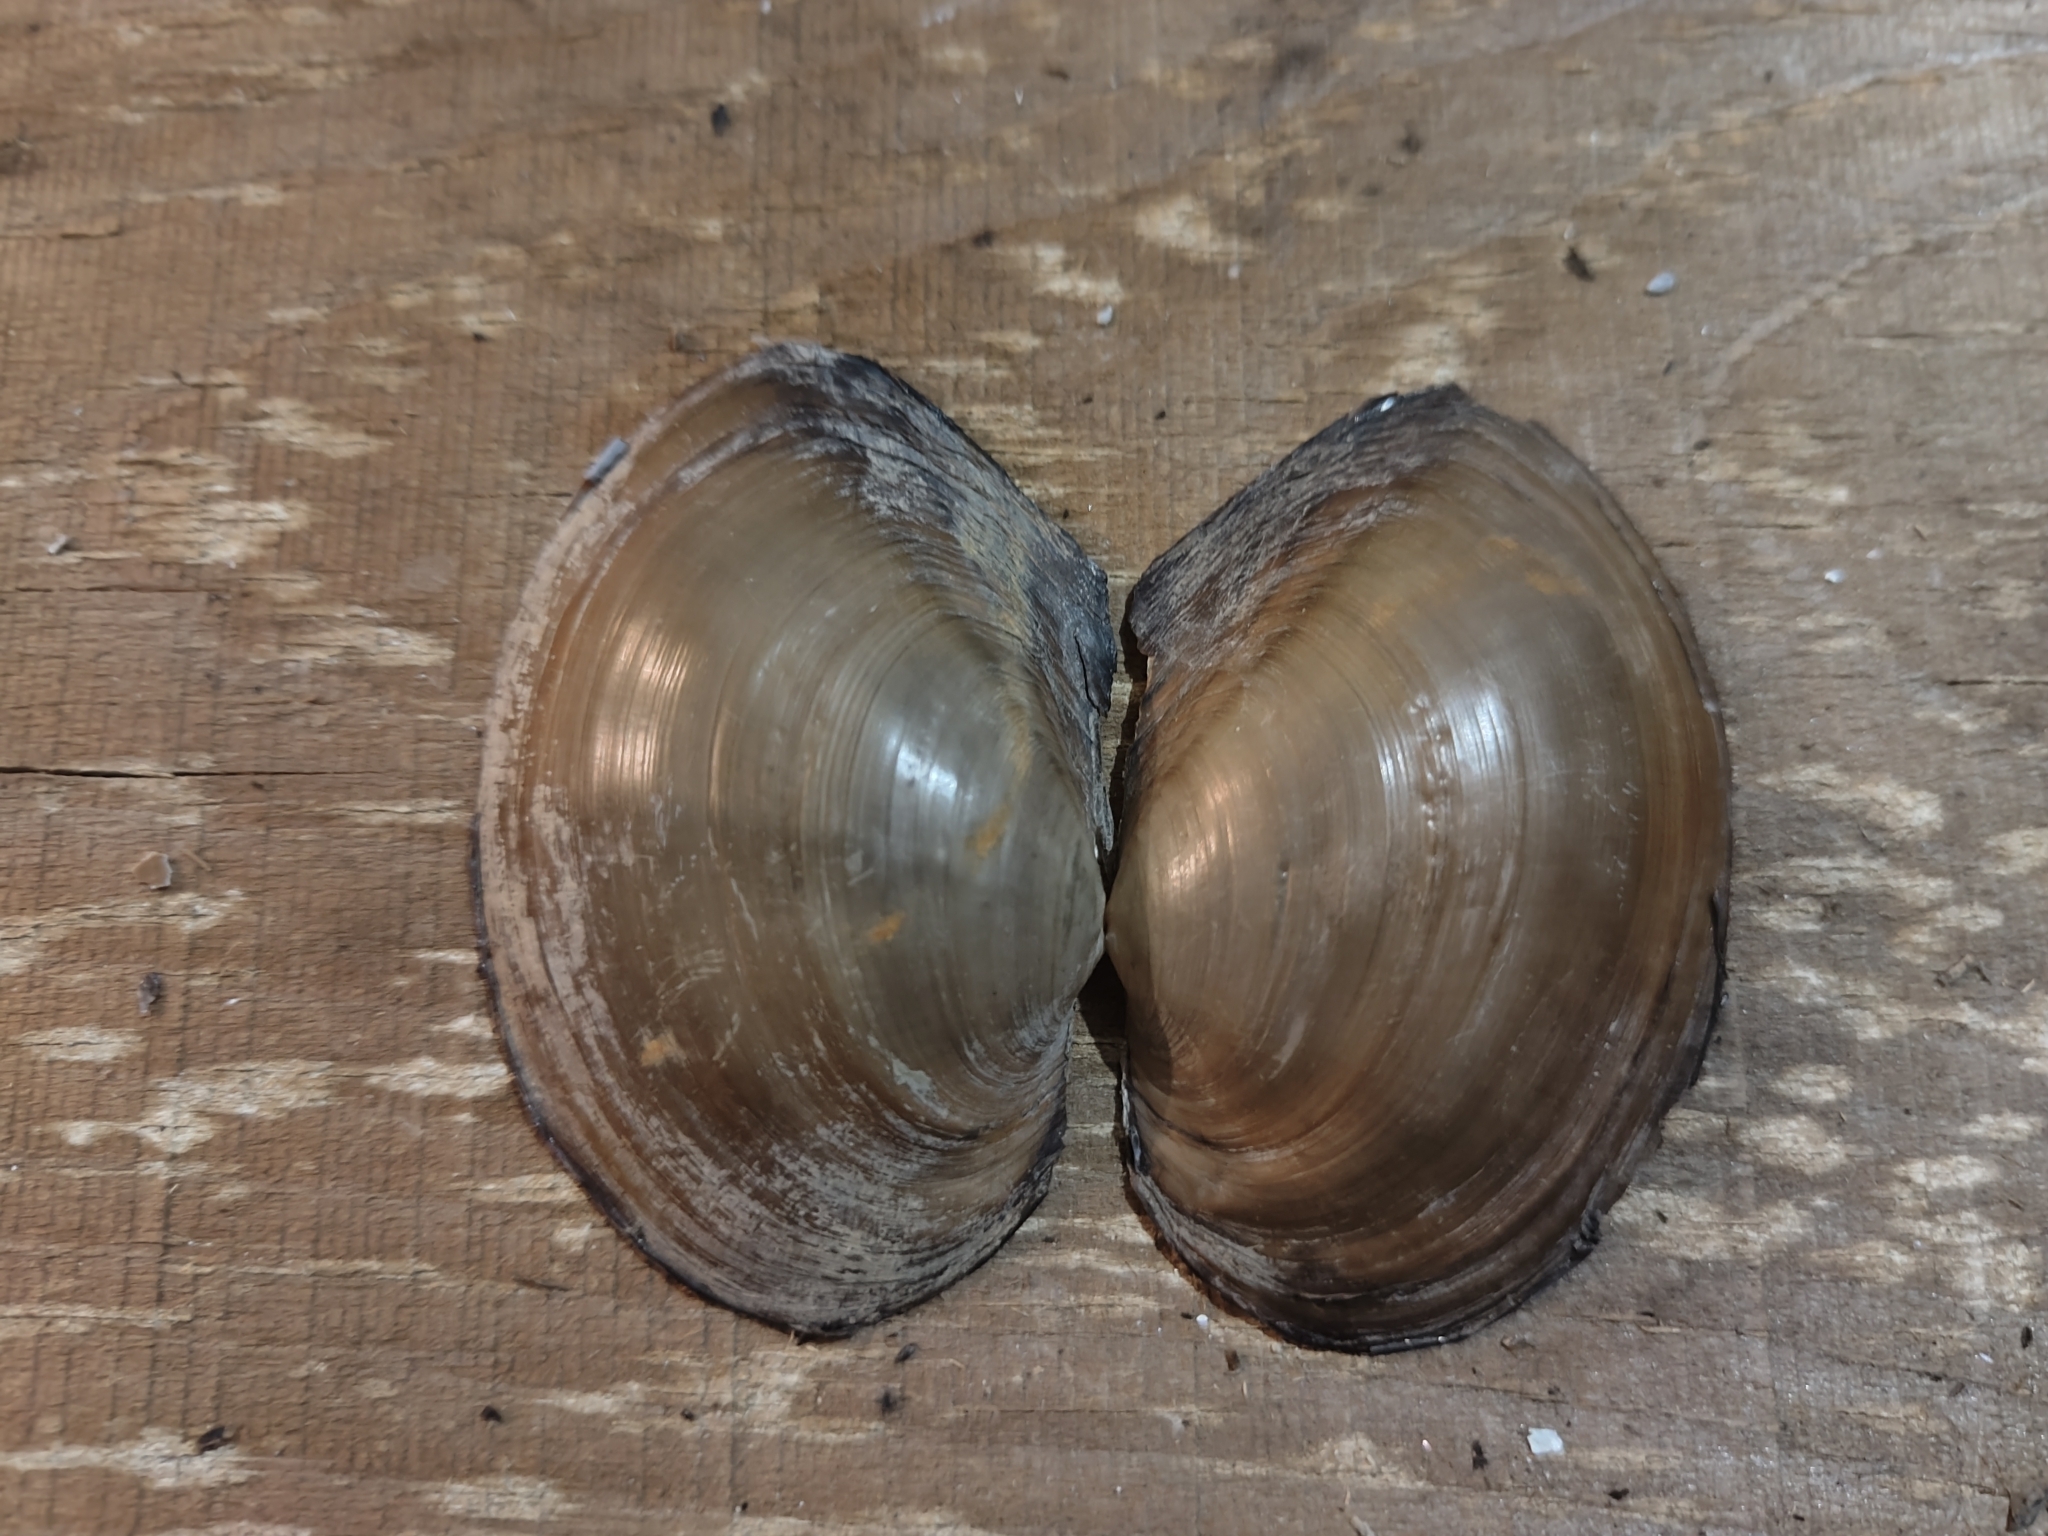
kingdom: Animalia
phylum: Mollusca
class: Bivalvia
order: Unionida
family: Unionidae
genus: Pyganodon
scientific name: Pyganodon grandis
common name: Giant floater
